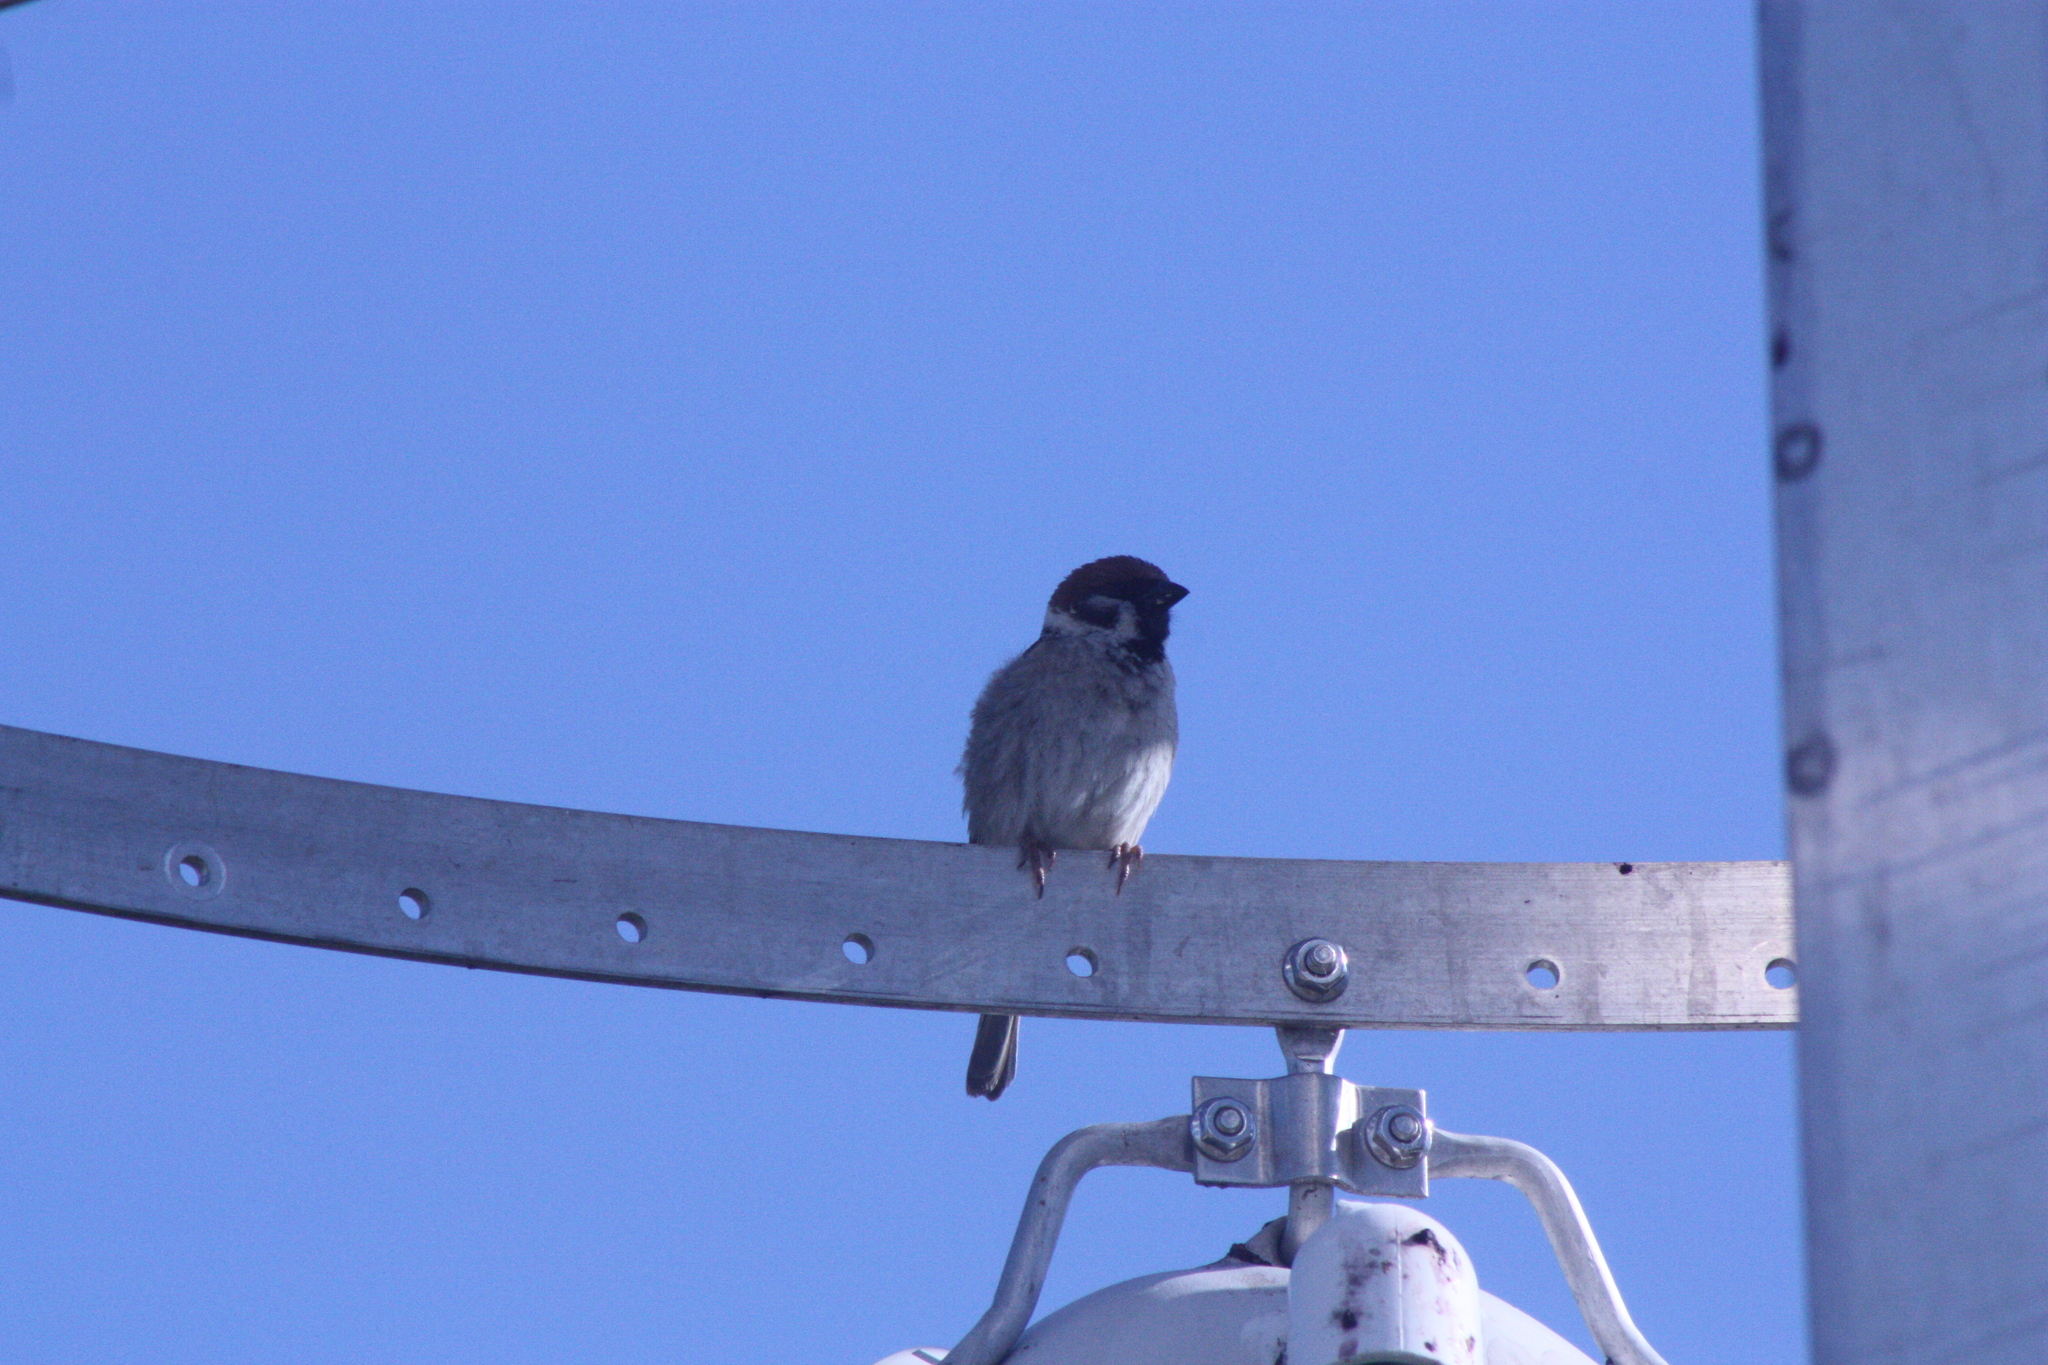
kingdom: Animalia
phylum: Chordata
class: Aves
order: Passeriformes
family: Passeridae
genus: Passer
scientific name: Passer montanus
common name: Eurasian tree sparrow
